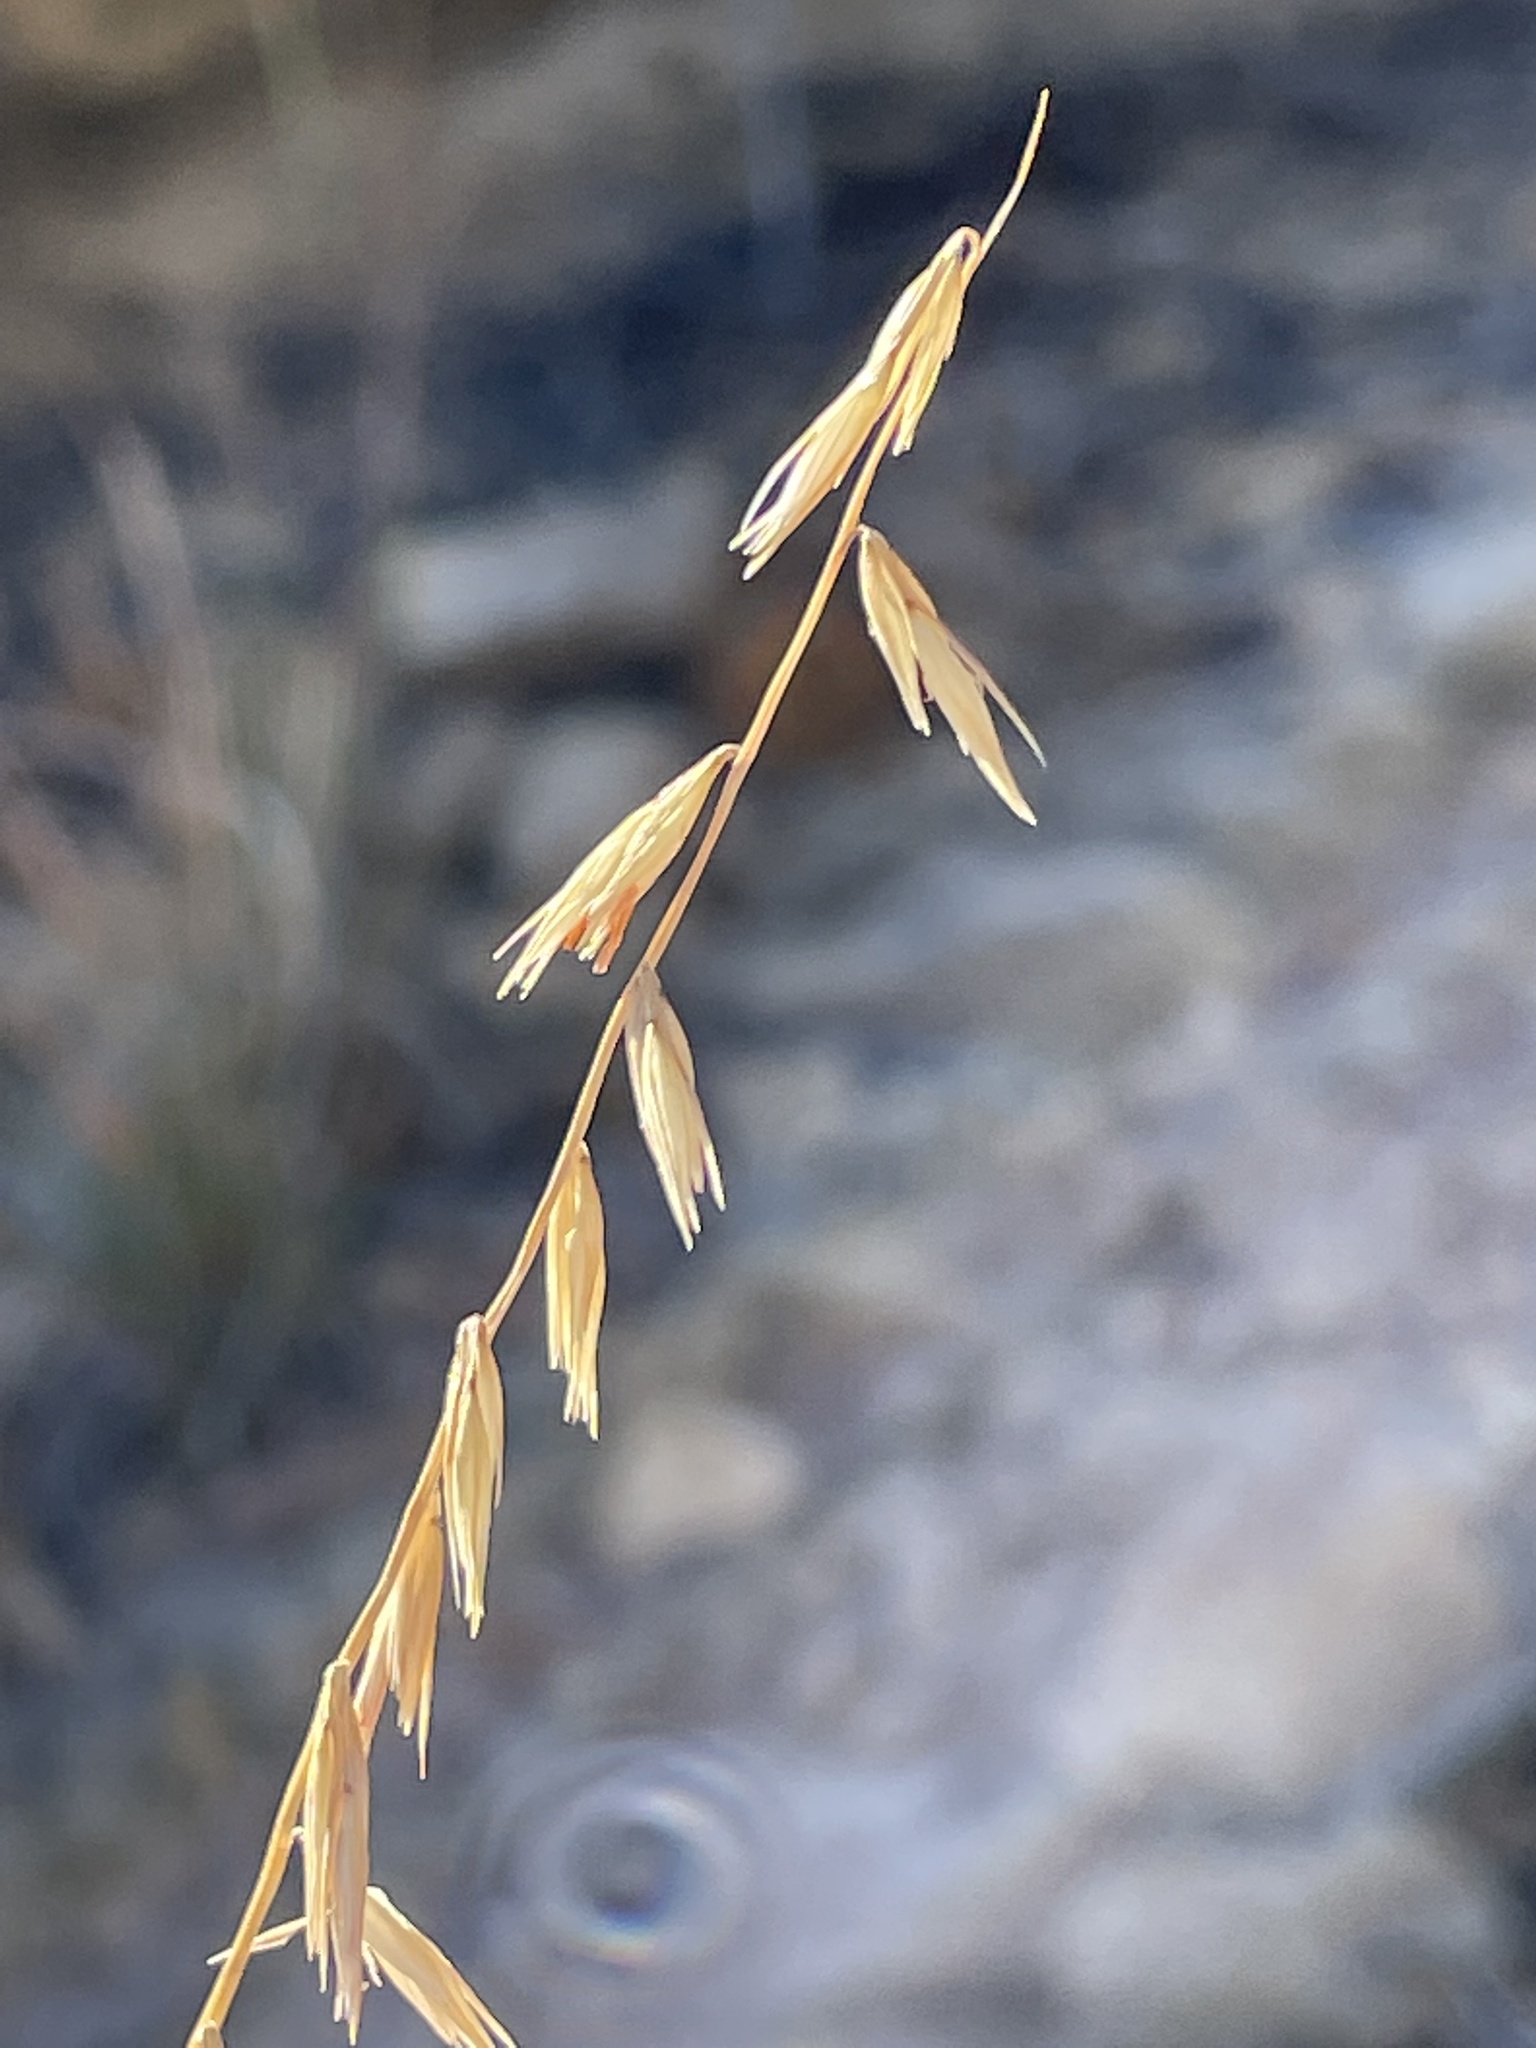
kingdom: Plantae
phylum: Tracheophyta
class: Liliopsida
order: Poales
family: Poaceae
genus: Bouteloua
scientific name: Bouteloua curtipendula
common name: Side-oats grama
